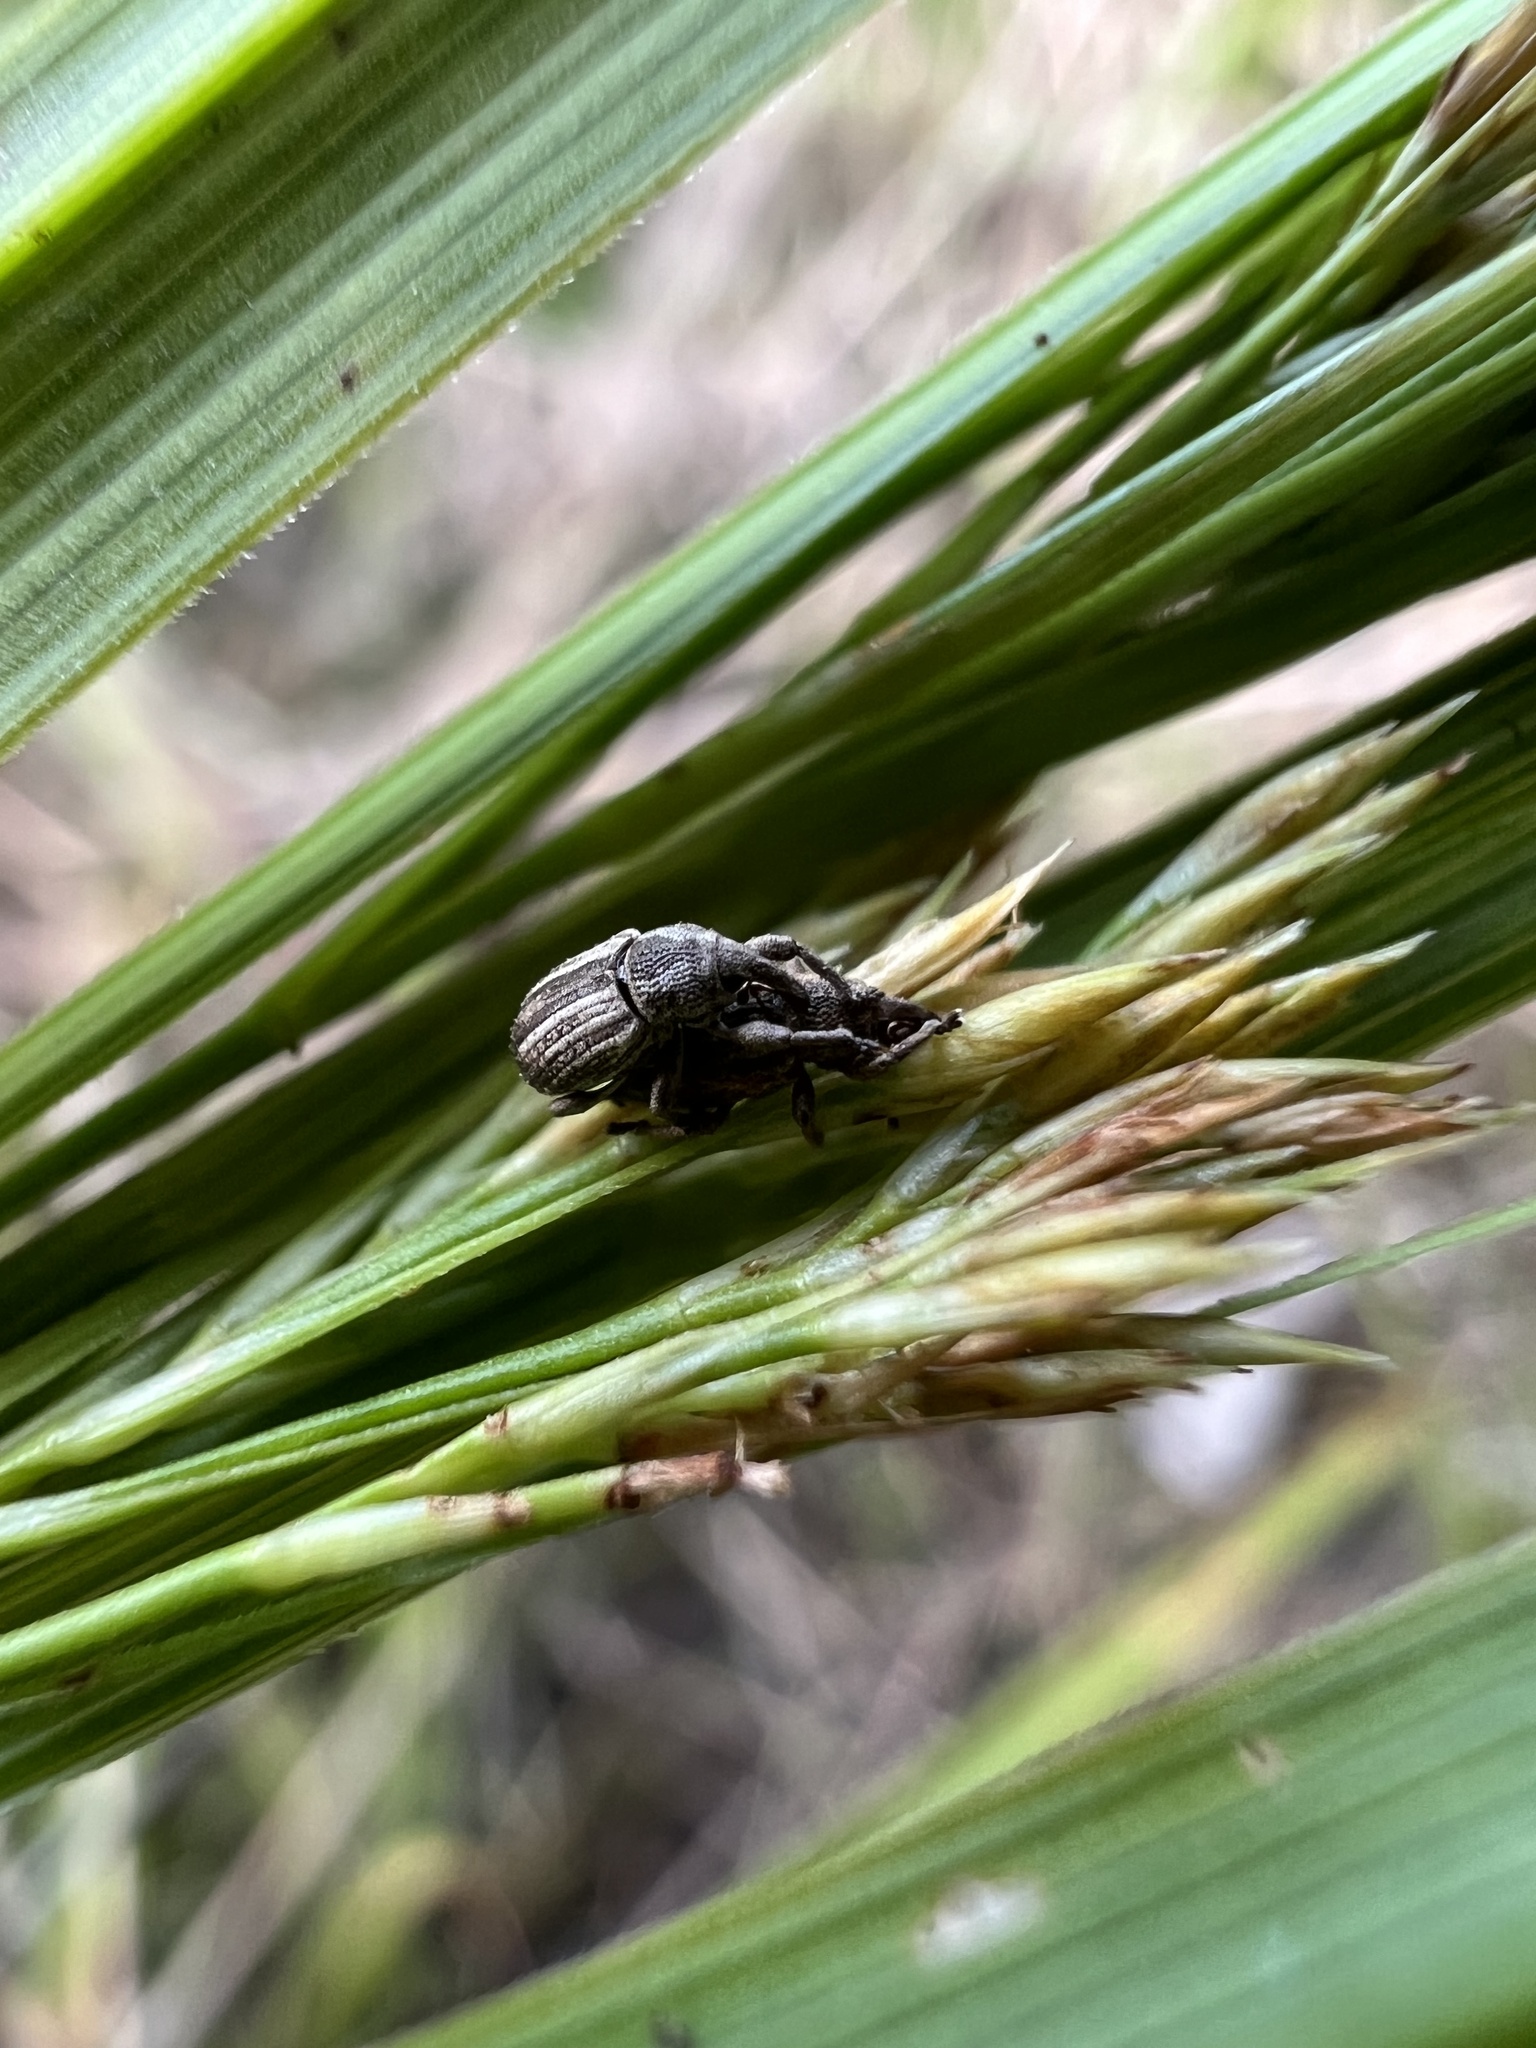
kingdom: Animalia
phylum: Arthropoda
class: Insecta
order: Coleoptera
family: Brachyceridae
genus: Brachybamus
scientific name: Brachybamus electus
